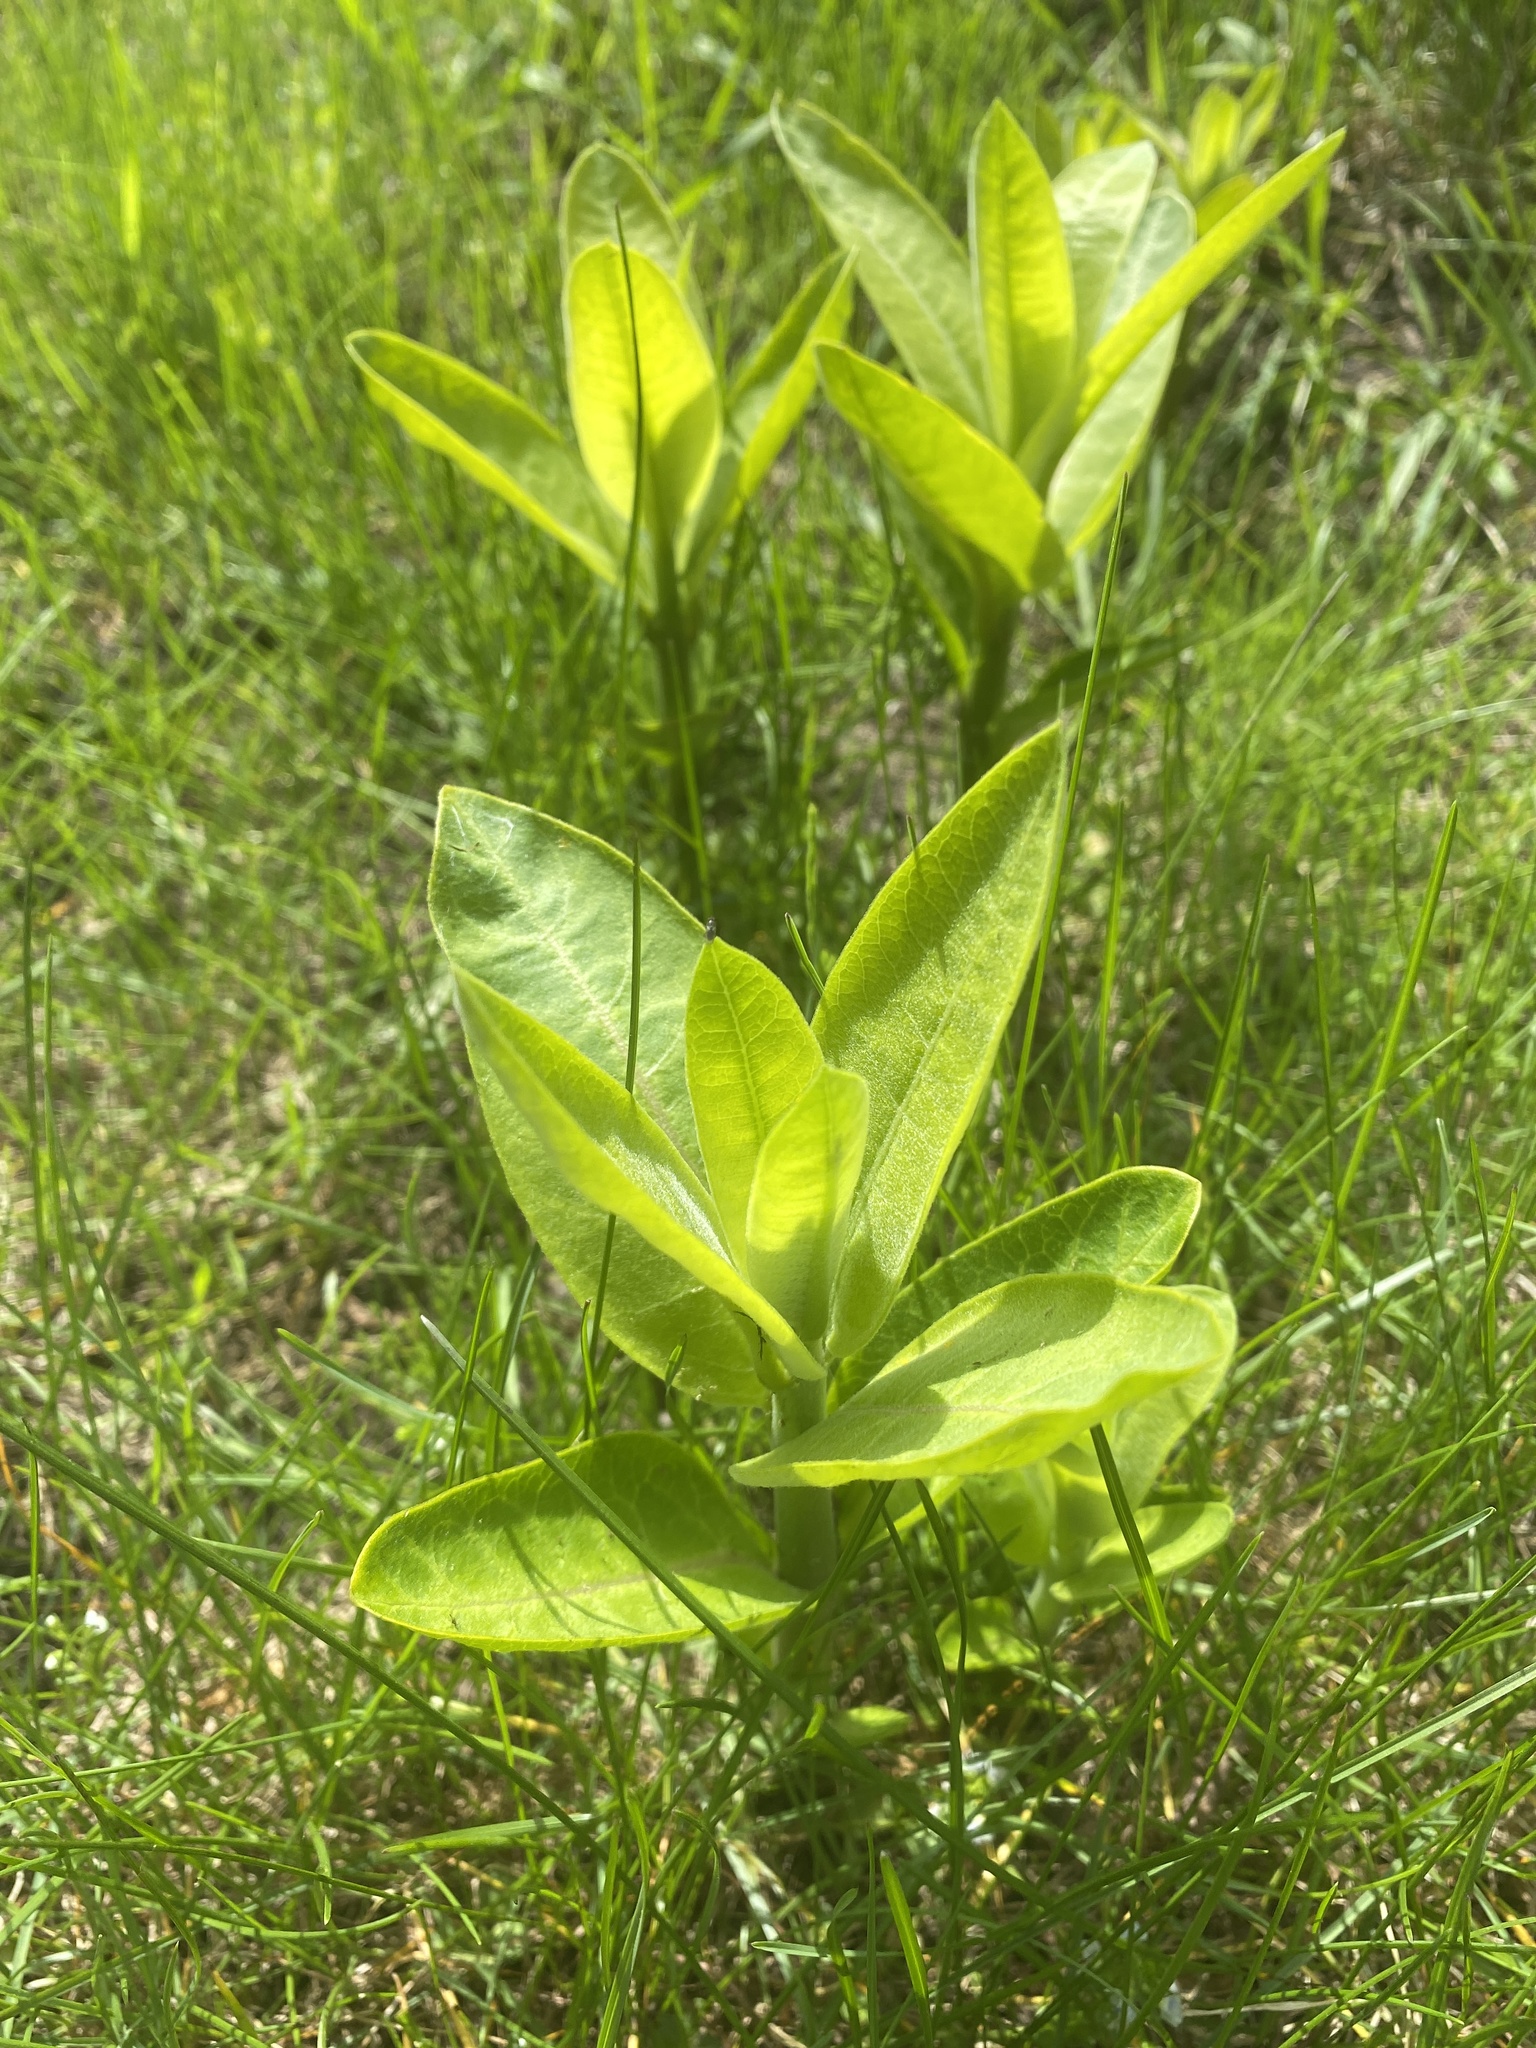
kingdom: Plantae
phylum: Tracheophyta
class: Magnoliopsida
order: Gentianales
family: Apocynaceae
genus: Asclepias
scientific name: Asclepias syriaca
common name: Common milkweed
